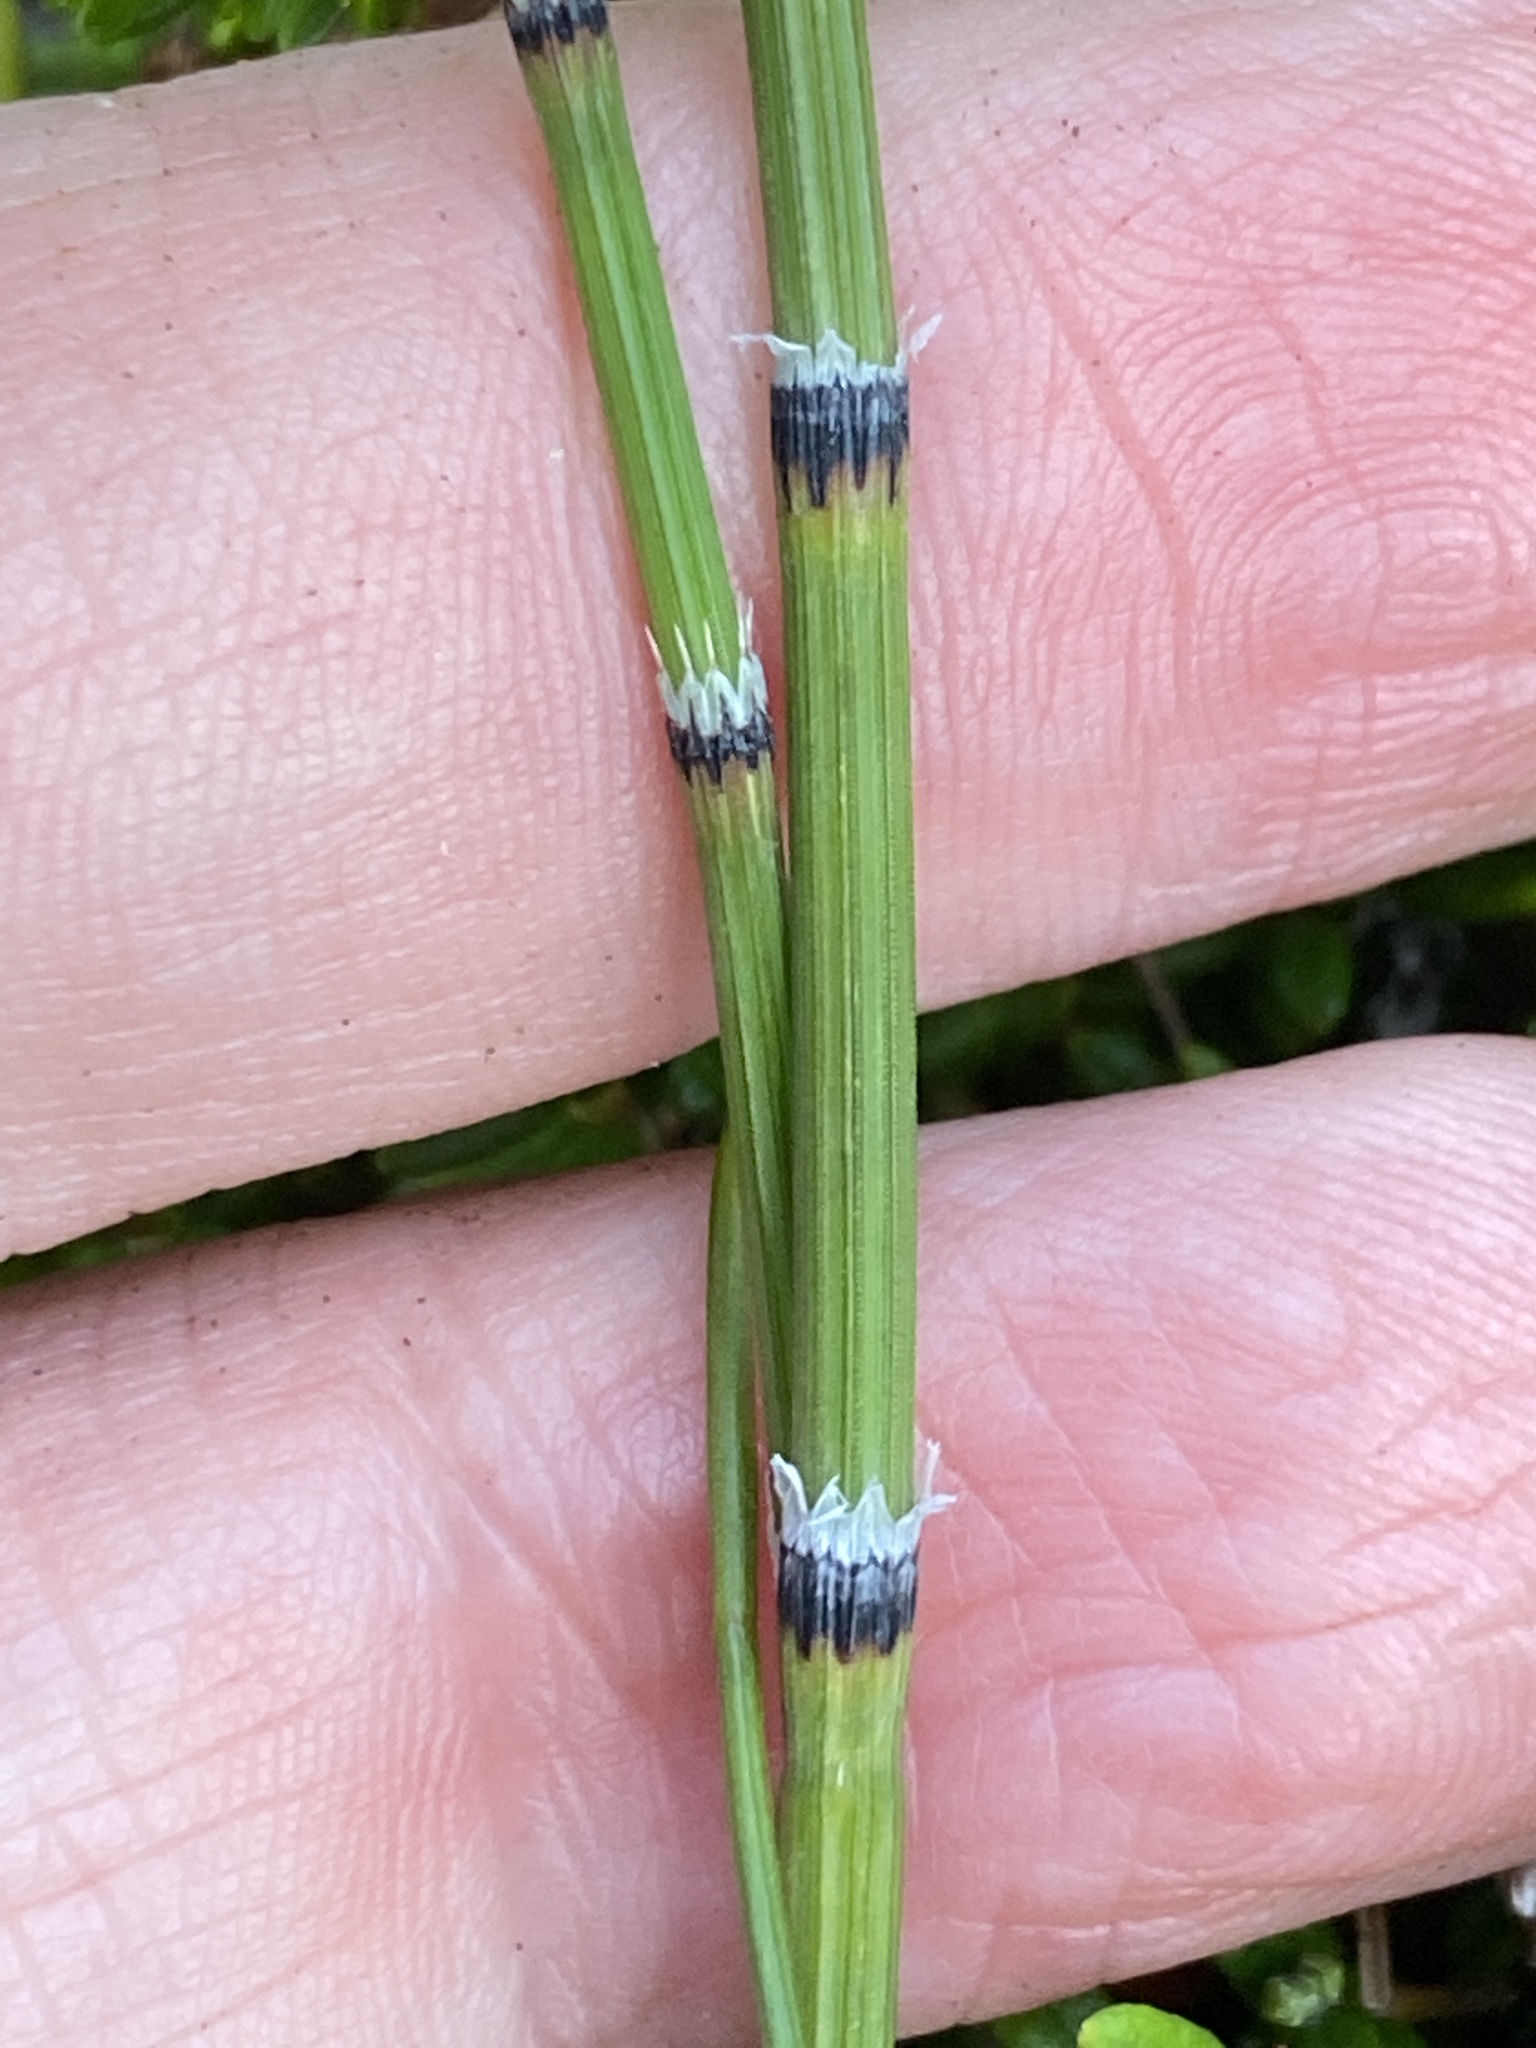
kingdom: Plantae
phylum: Tracheophyta
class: Polypodiopsida
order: Equisetales
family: Equisetaceae
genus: Equisetum
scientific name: Equisetum variegatum
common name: Variegated horsetail
